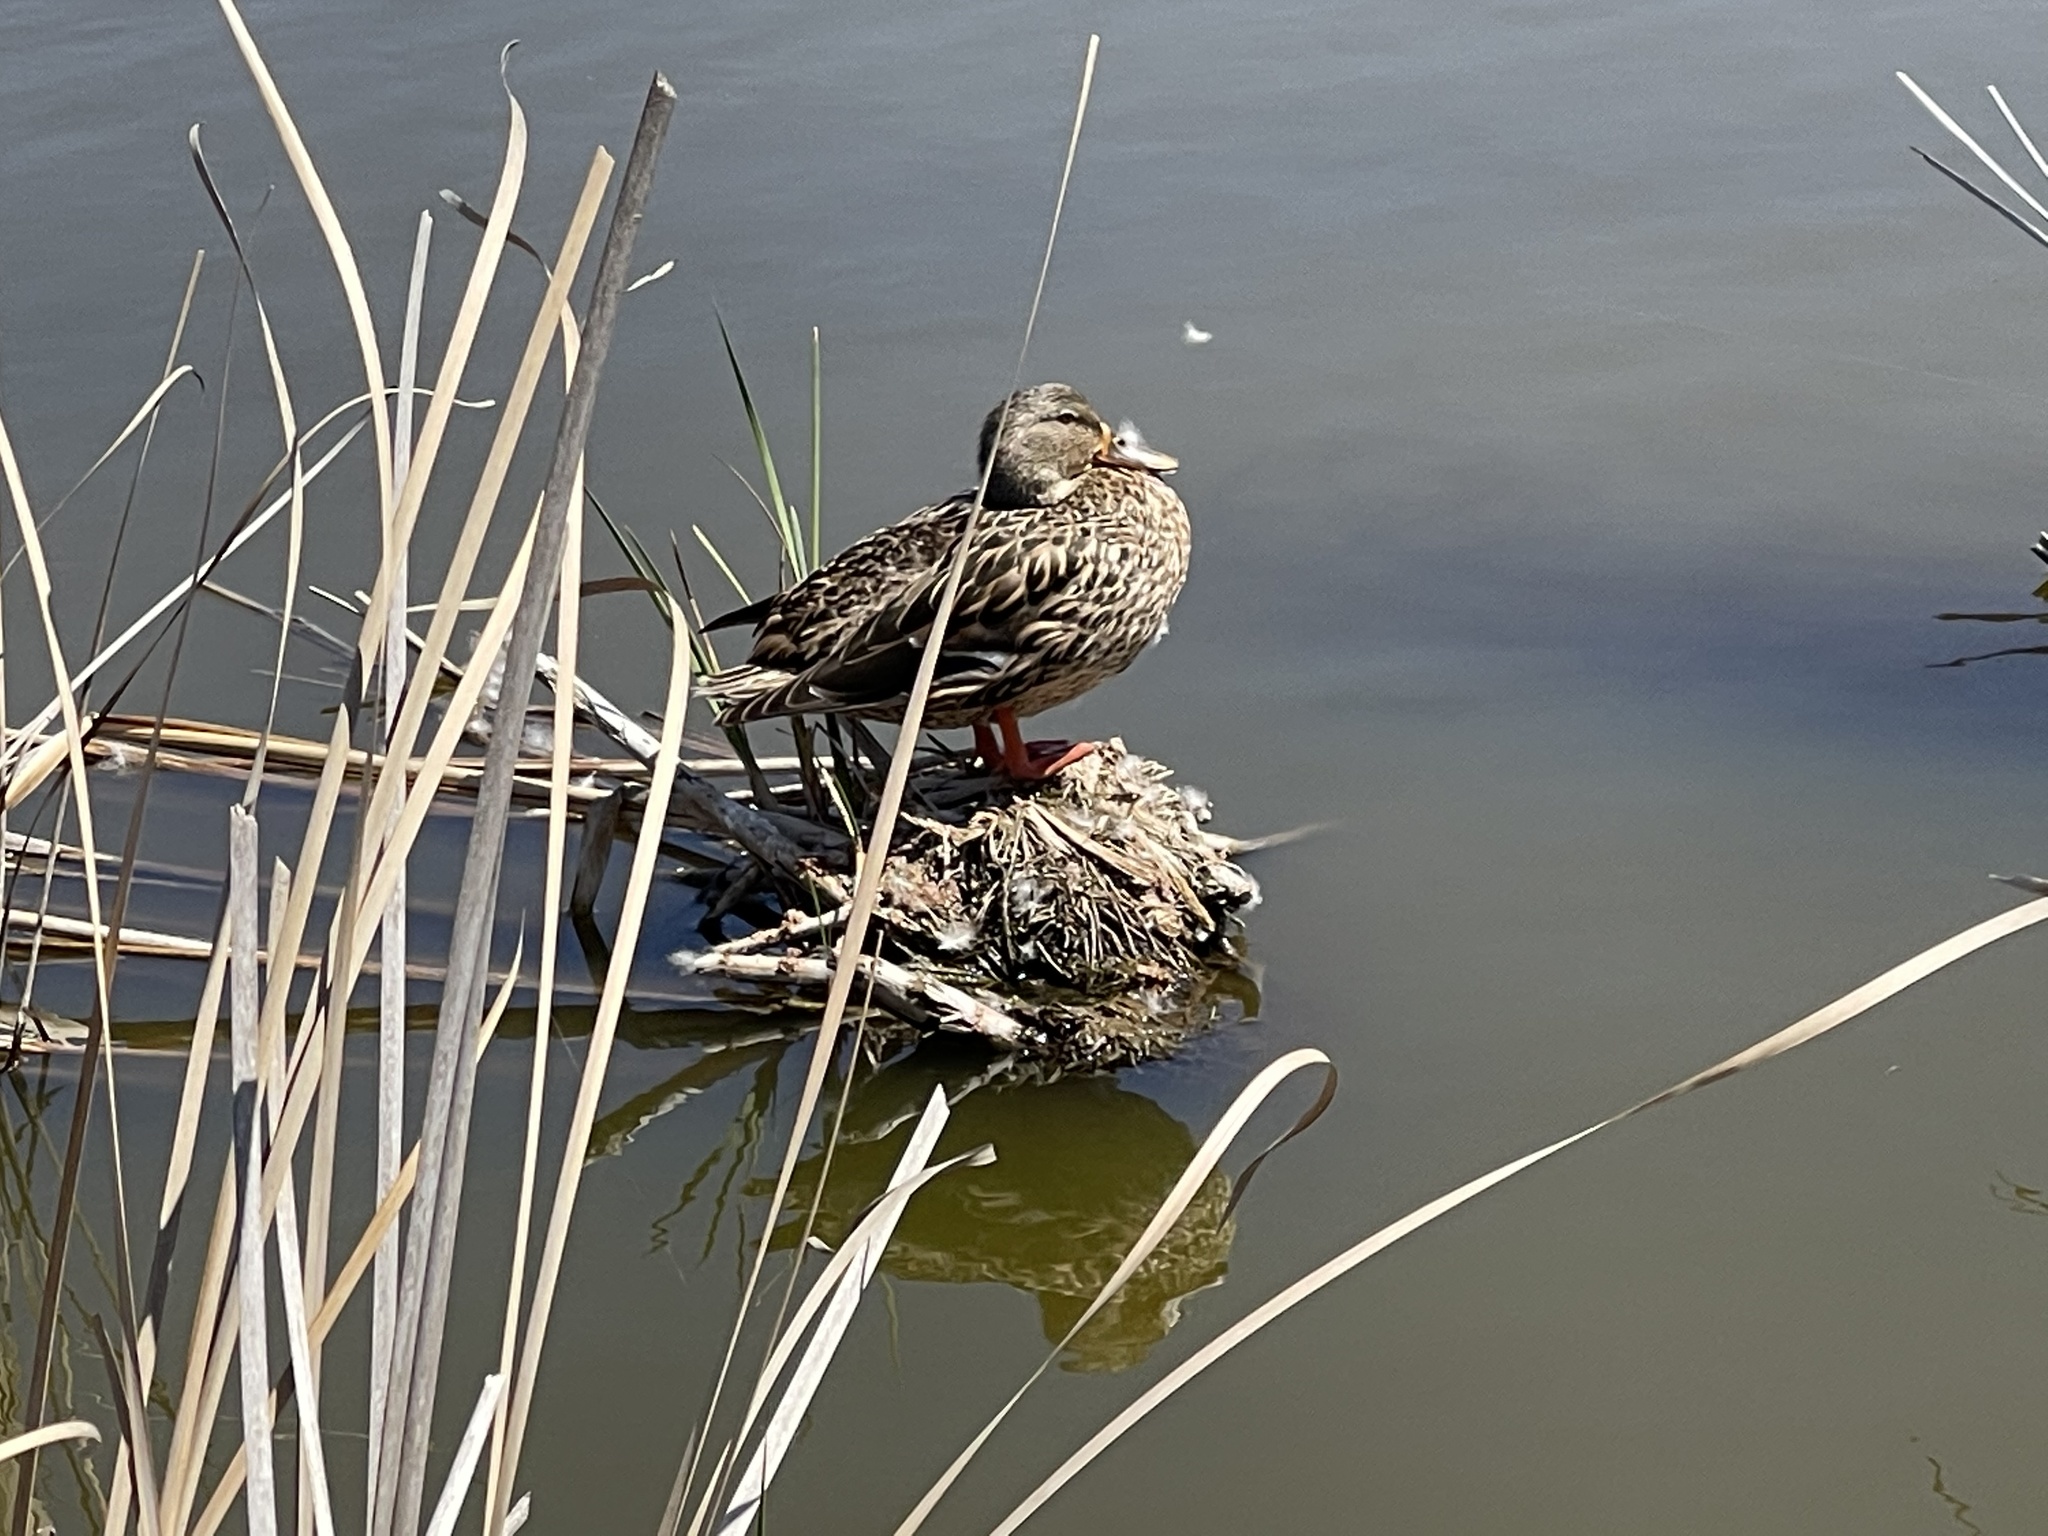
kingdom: Animalia
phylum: Chordata
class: Aves
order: Anseriformes
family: Anatidae
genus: Anas
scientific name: Anas platyrhynchos
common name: Mallard
